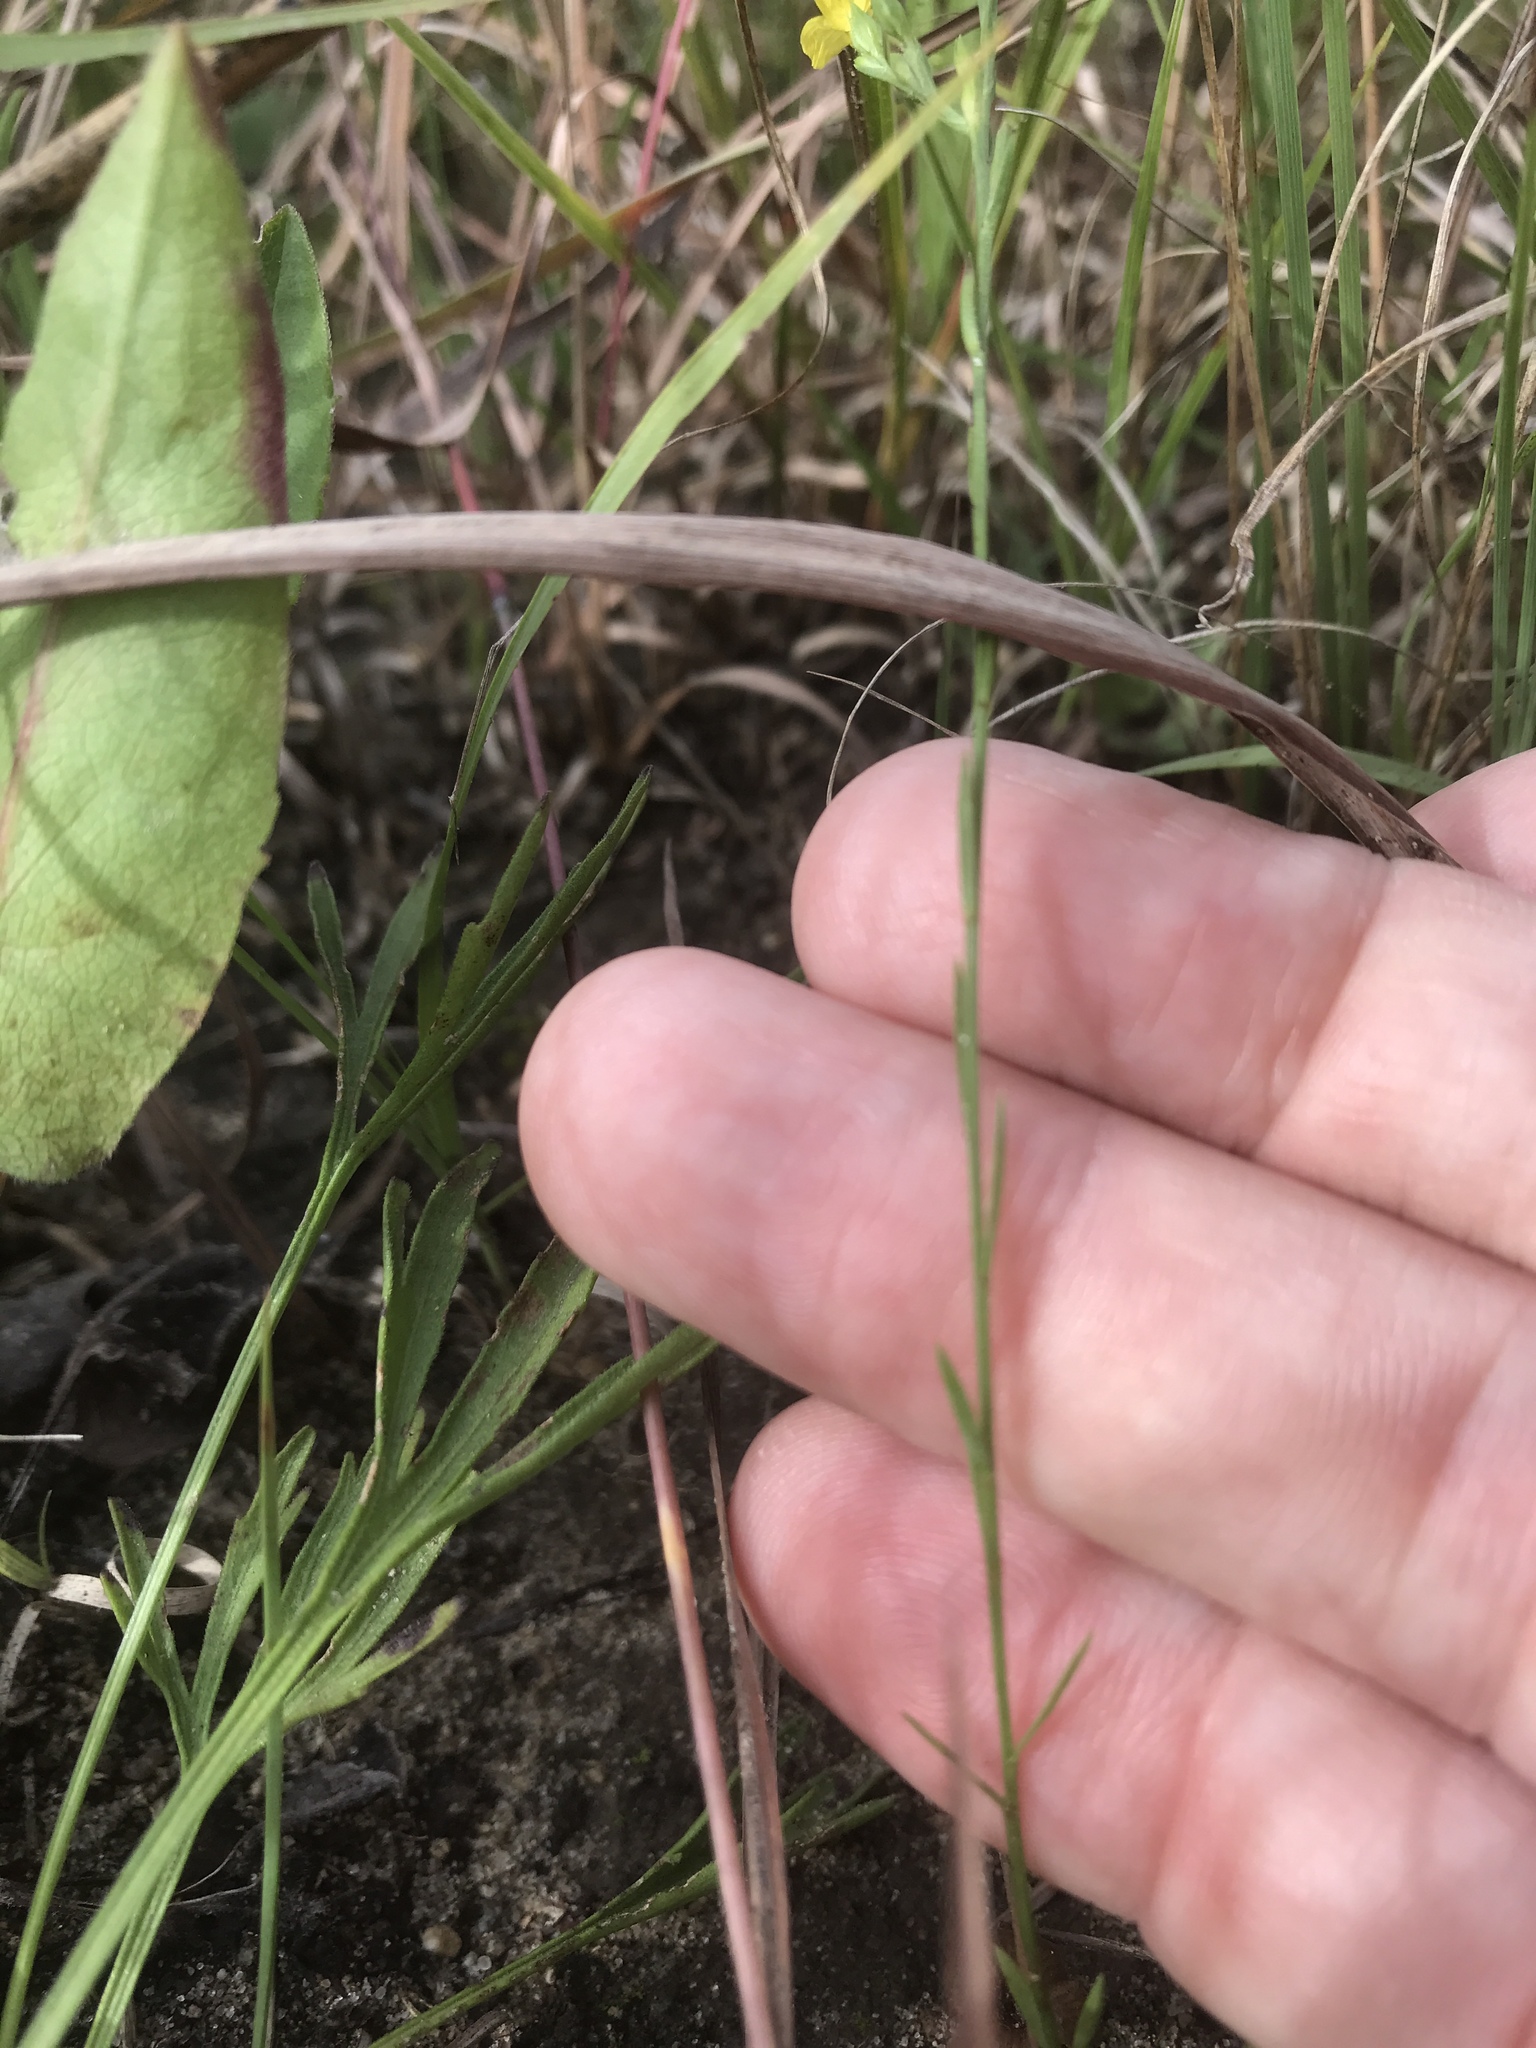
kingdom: Plantae
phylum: Tracheophyta
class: Magnoliopsida
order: Malpighiales
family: Linaceae
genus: Linum
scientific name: Linum sulcatum
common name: Grooved flax
